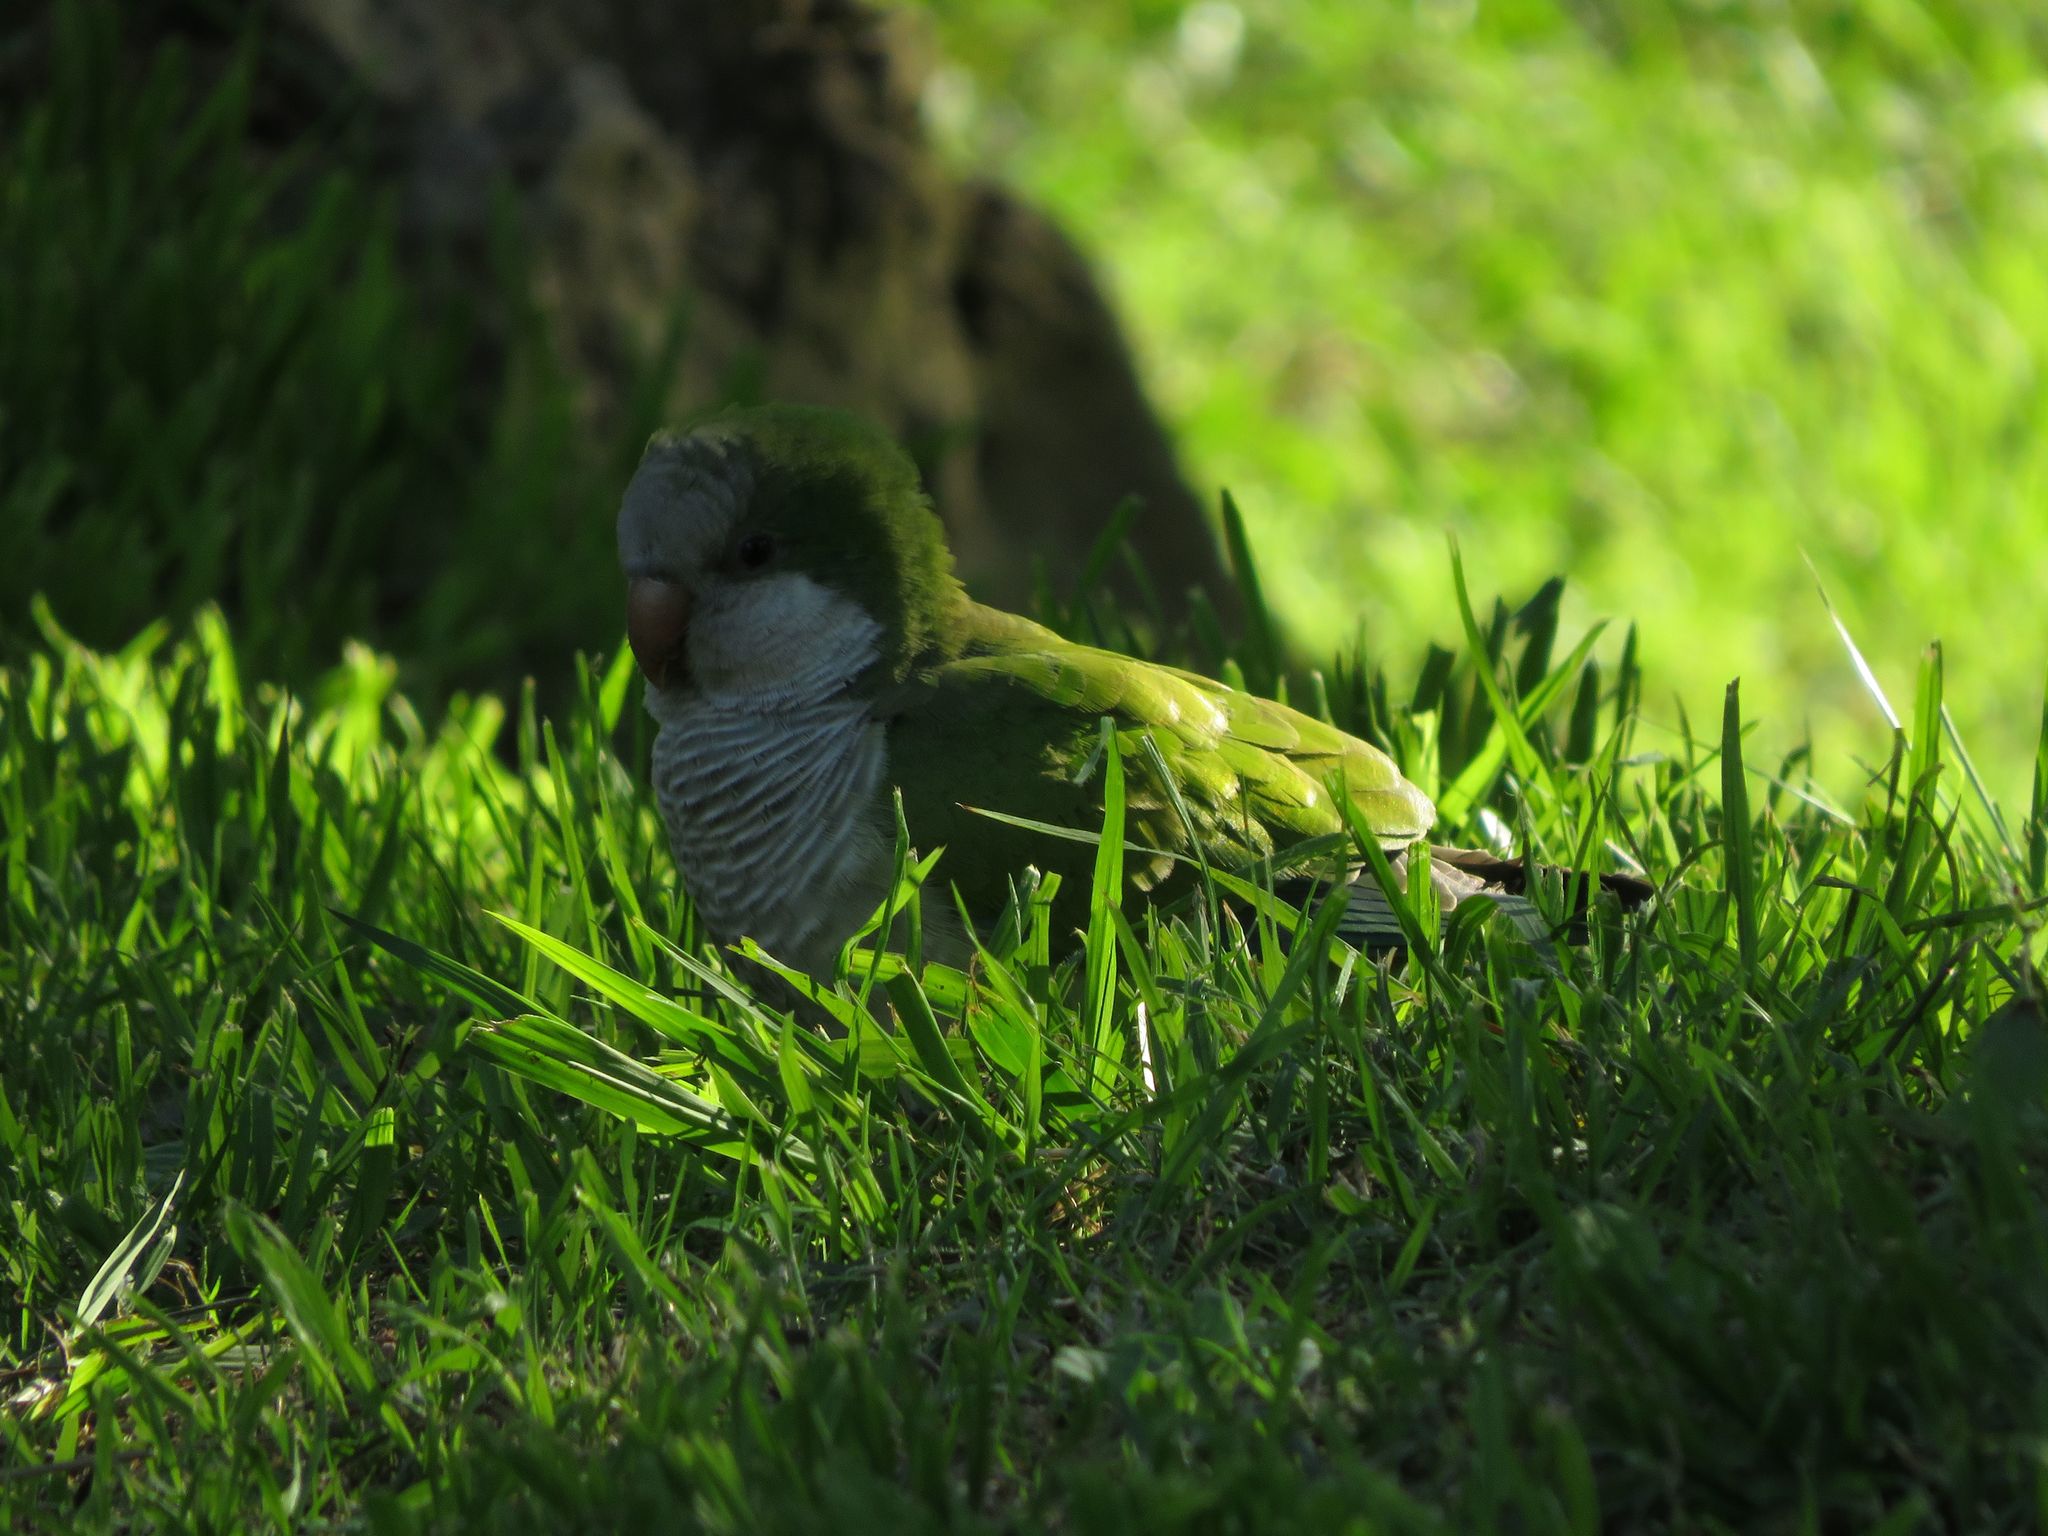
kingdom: Animalia
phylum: Chordata
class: Aves
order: Psittaciformes
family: Psittacidae
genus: Myiopsitta
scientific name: Myiopsitta monachus
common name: Monk parakeet
